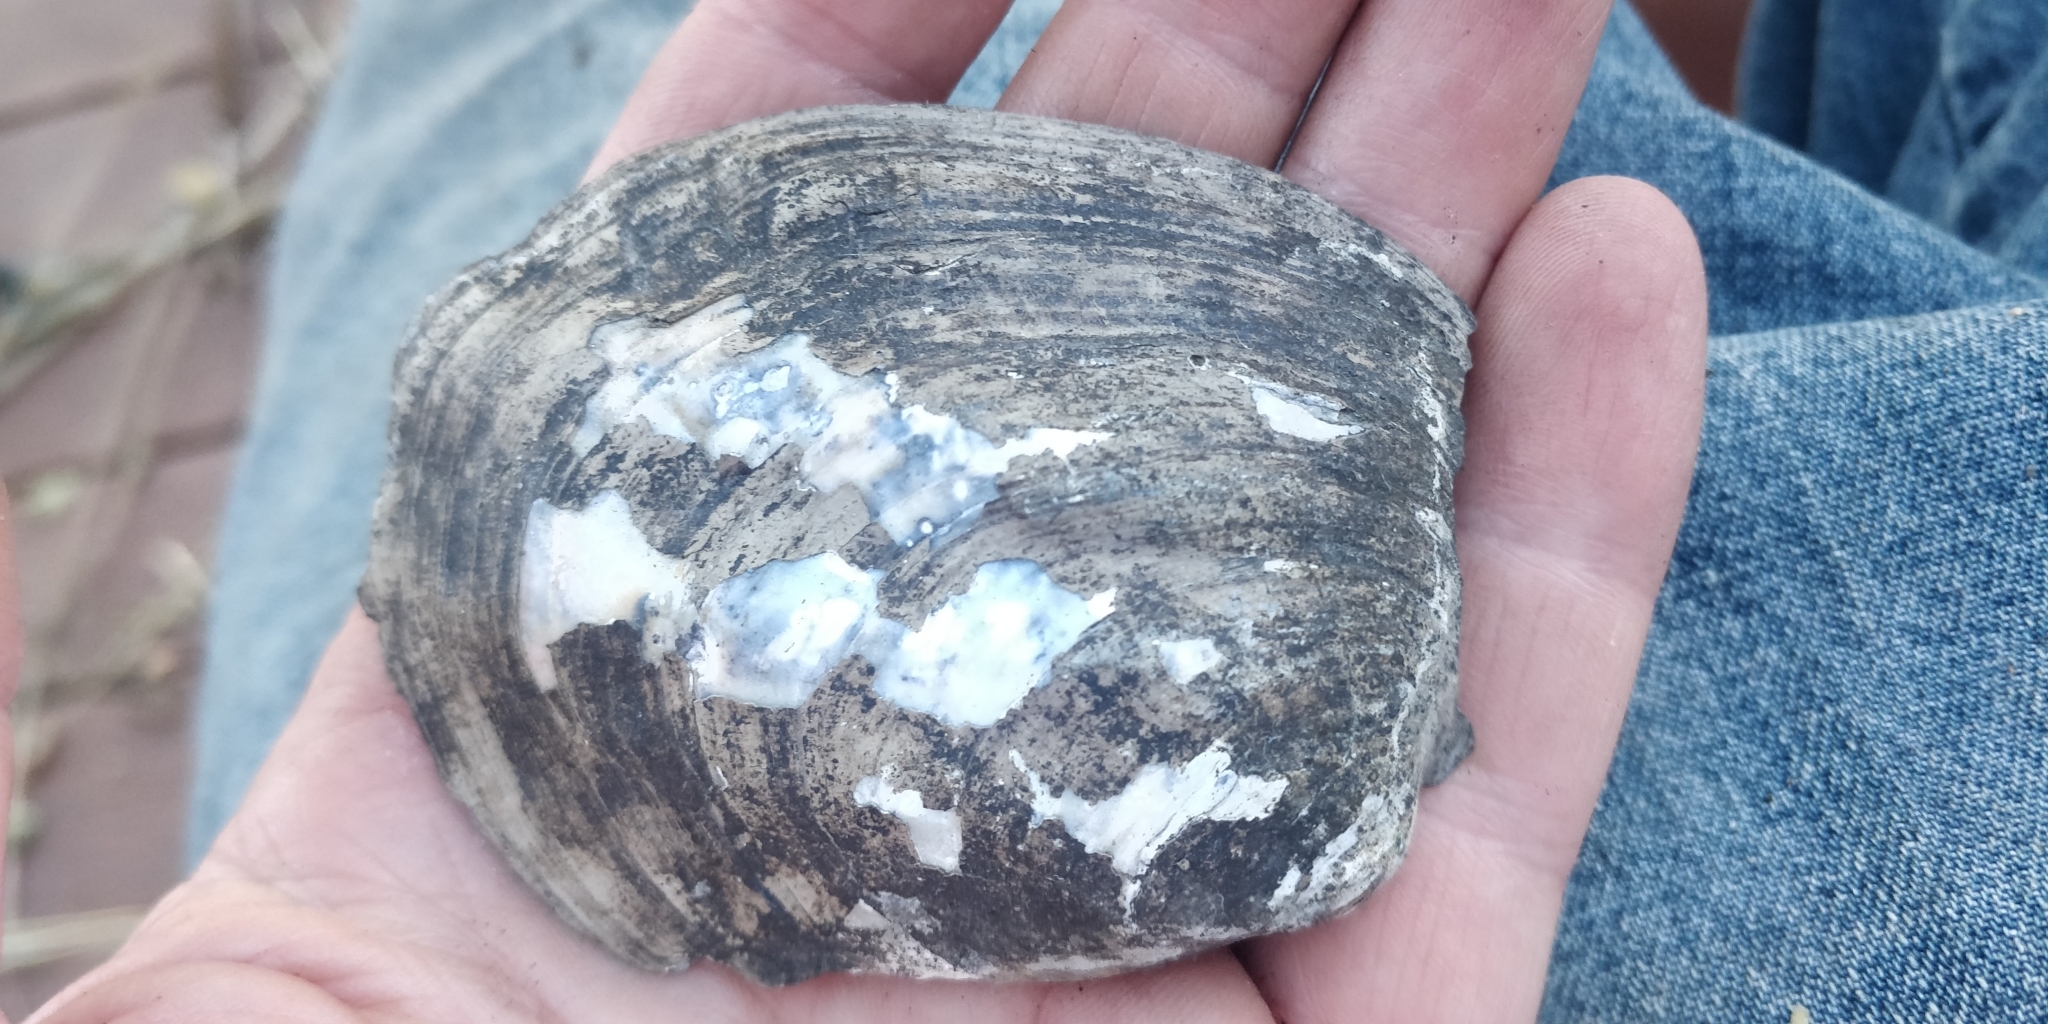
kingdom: Animalia
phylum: Mollusca
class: Bivalvia
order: Unionida
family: Unionidae
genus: Amblema
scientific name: Amblema plicata
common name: Threeridge
